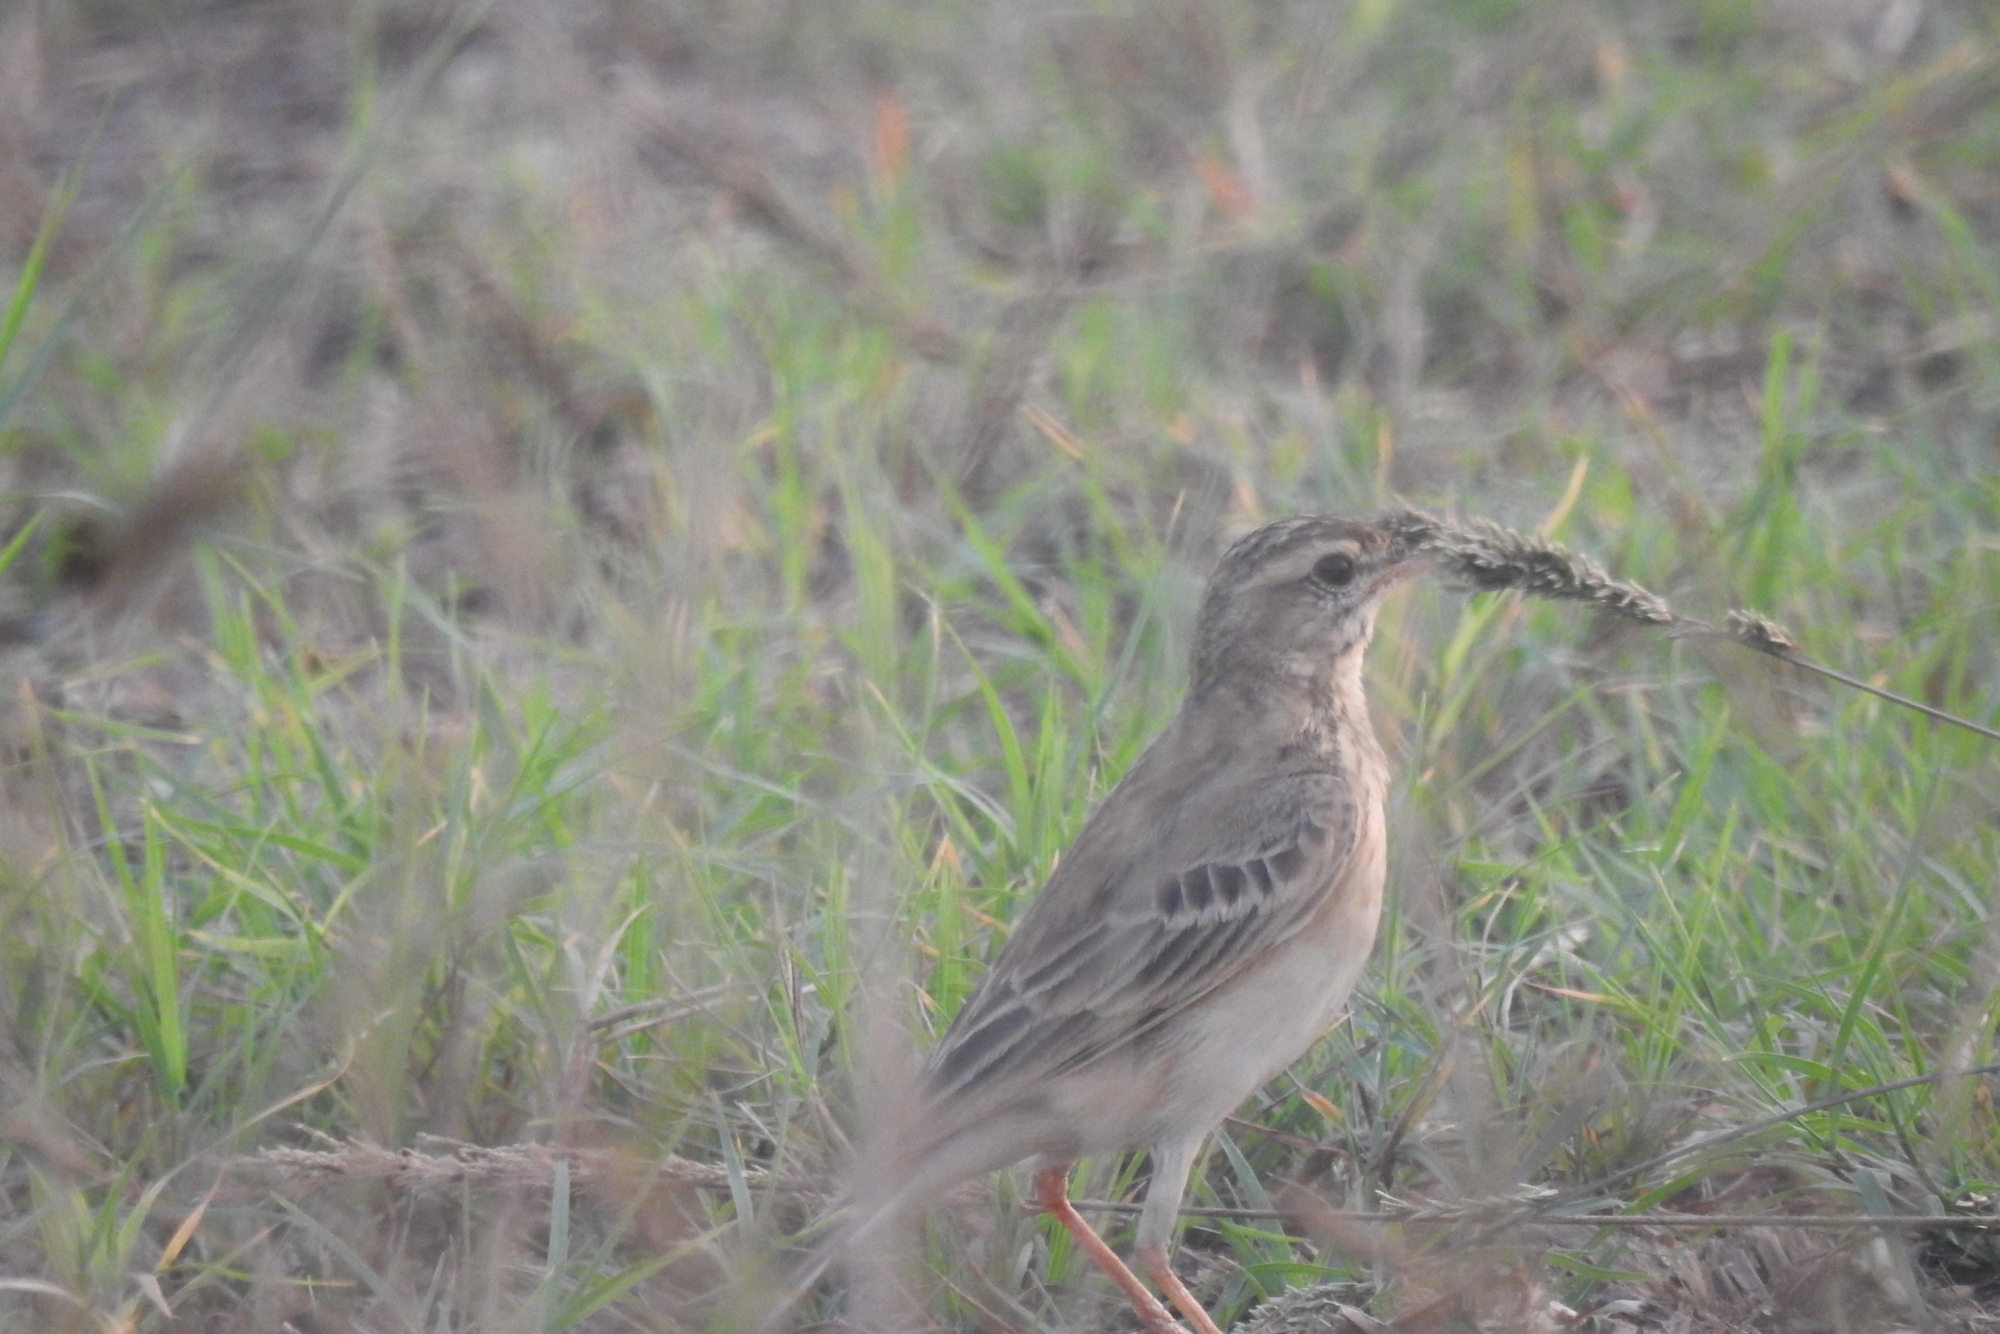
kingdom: Animalia
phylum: Chordata
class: Aves
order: Passeriformes
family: Motacillidae
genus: Anthus
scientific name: Anthus rufulus
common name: Paddyfield pipit
